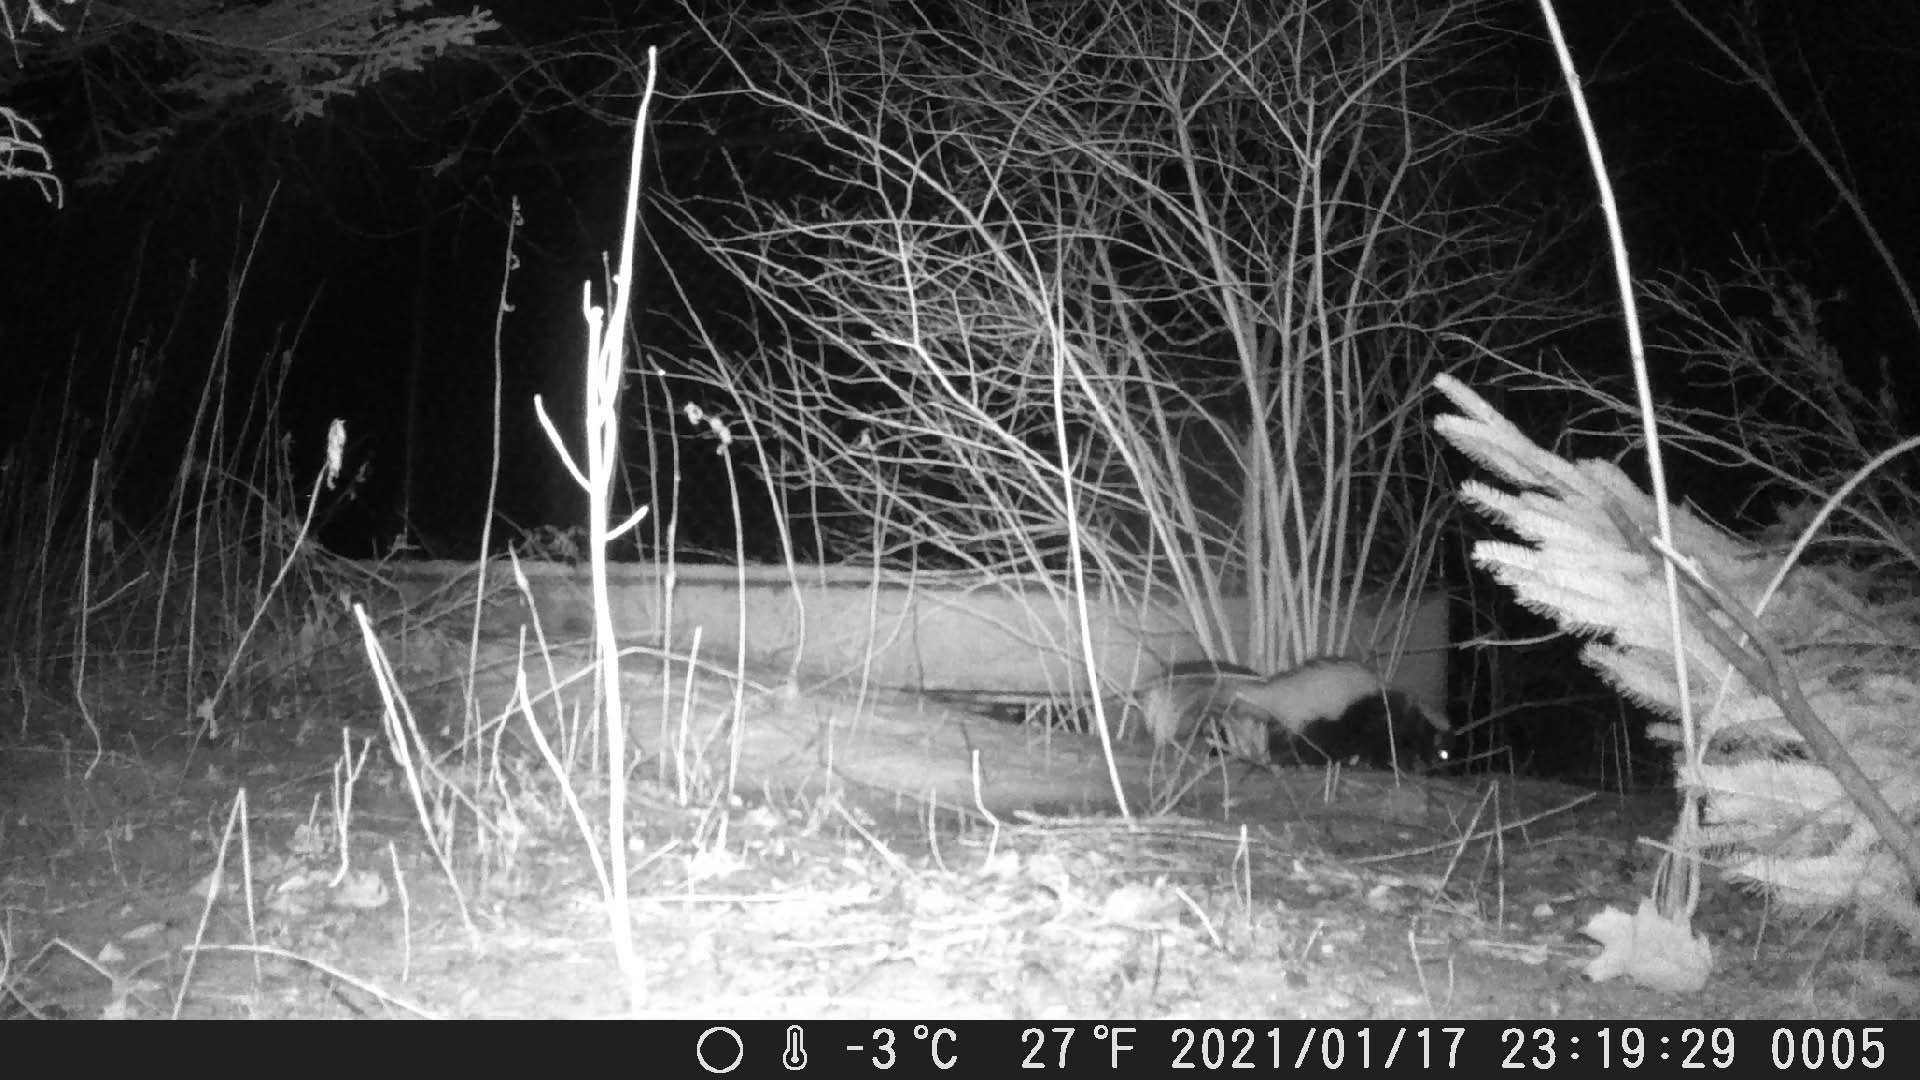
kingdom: Animalia
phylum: Chordata
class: Mammalia
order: Carnivora
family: Mephitidae
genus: Mephitis
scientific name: Mephitis mephitis
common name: Striped skunk
